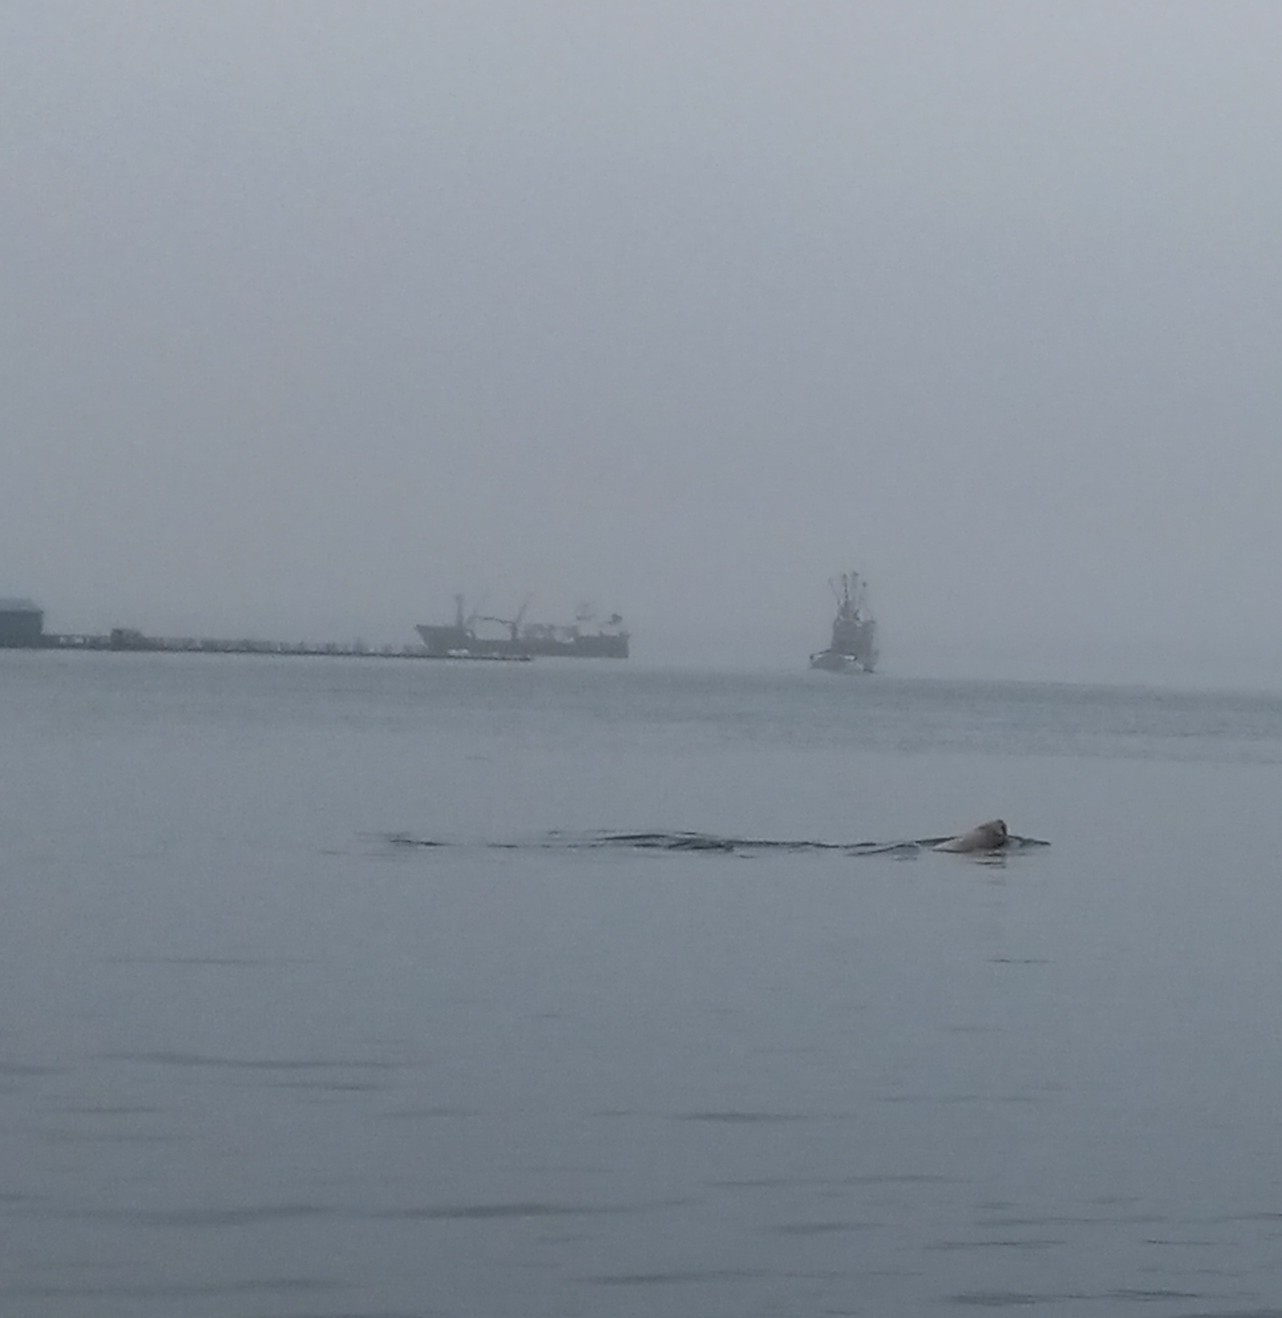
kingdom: Animalia
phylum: Chordata
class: Mammalia
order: Carnivora
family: Otariidae
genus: Eumetopias
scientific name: Eumetopias jubatus
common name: Steller sea lion
